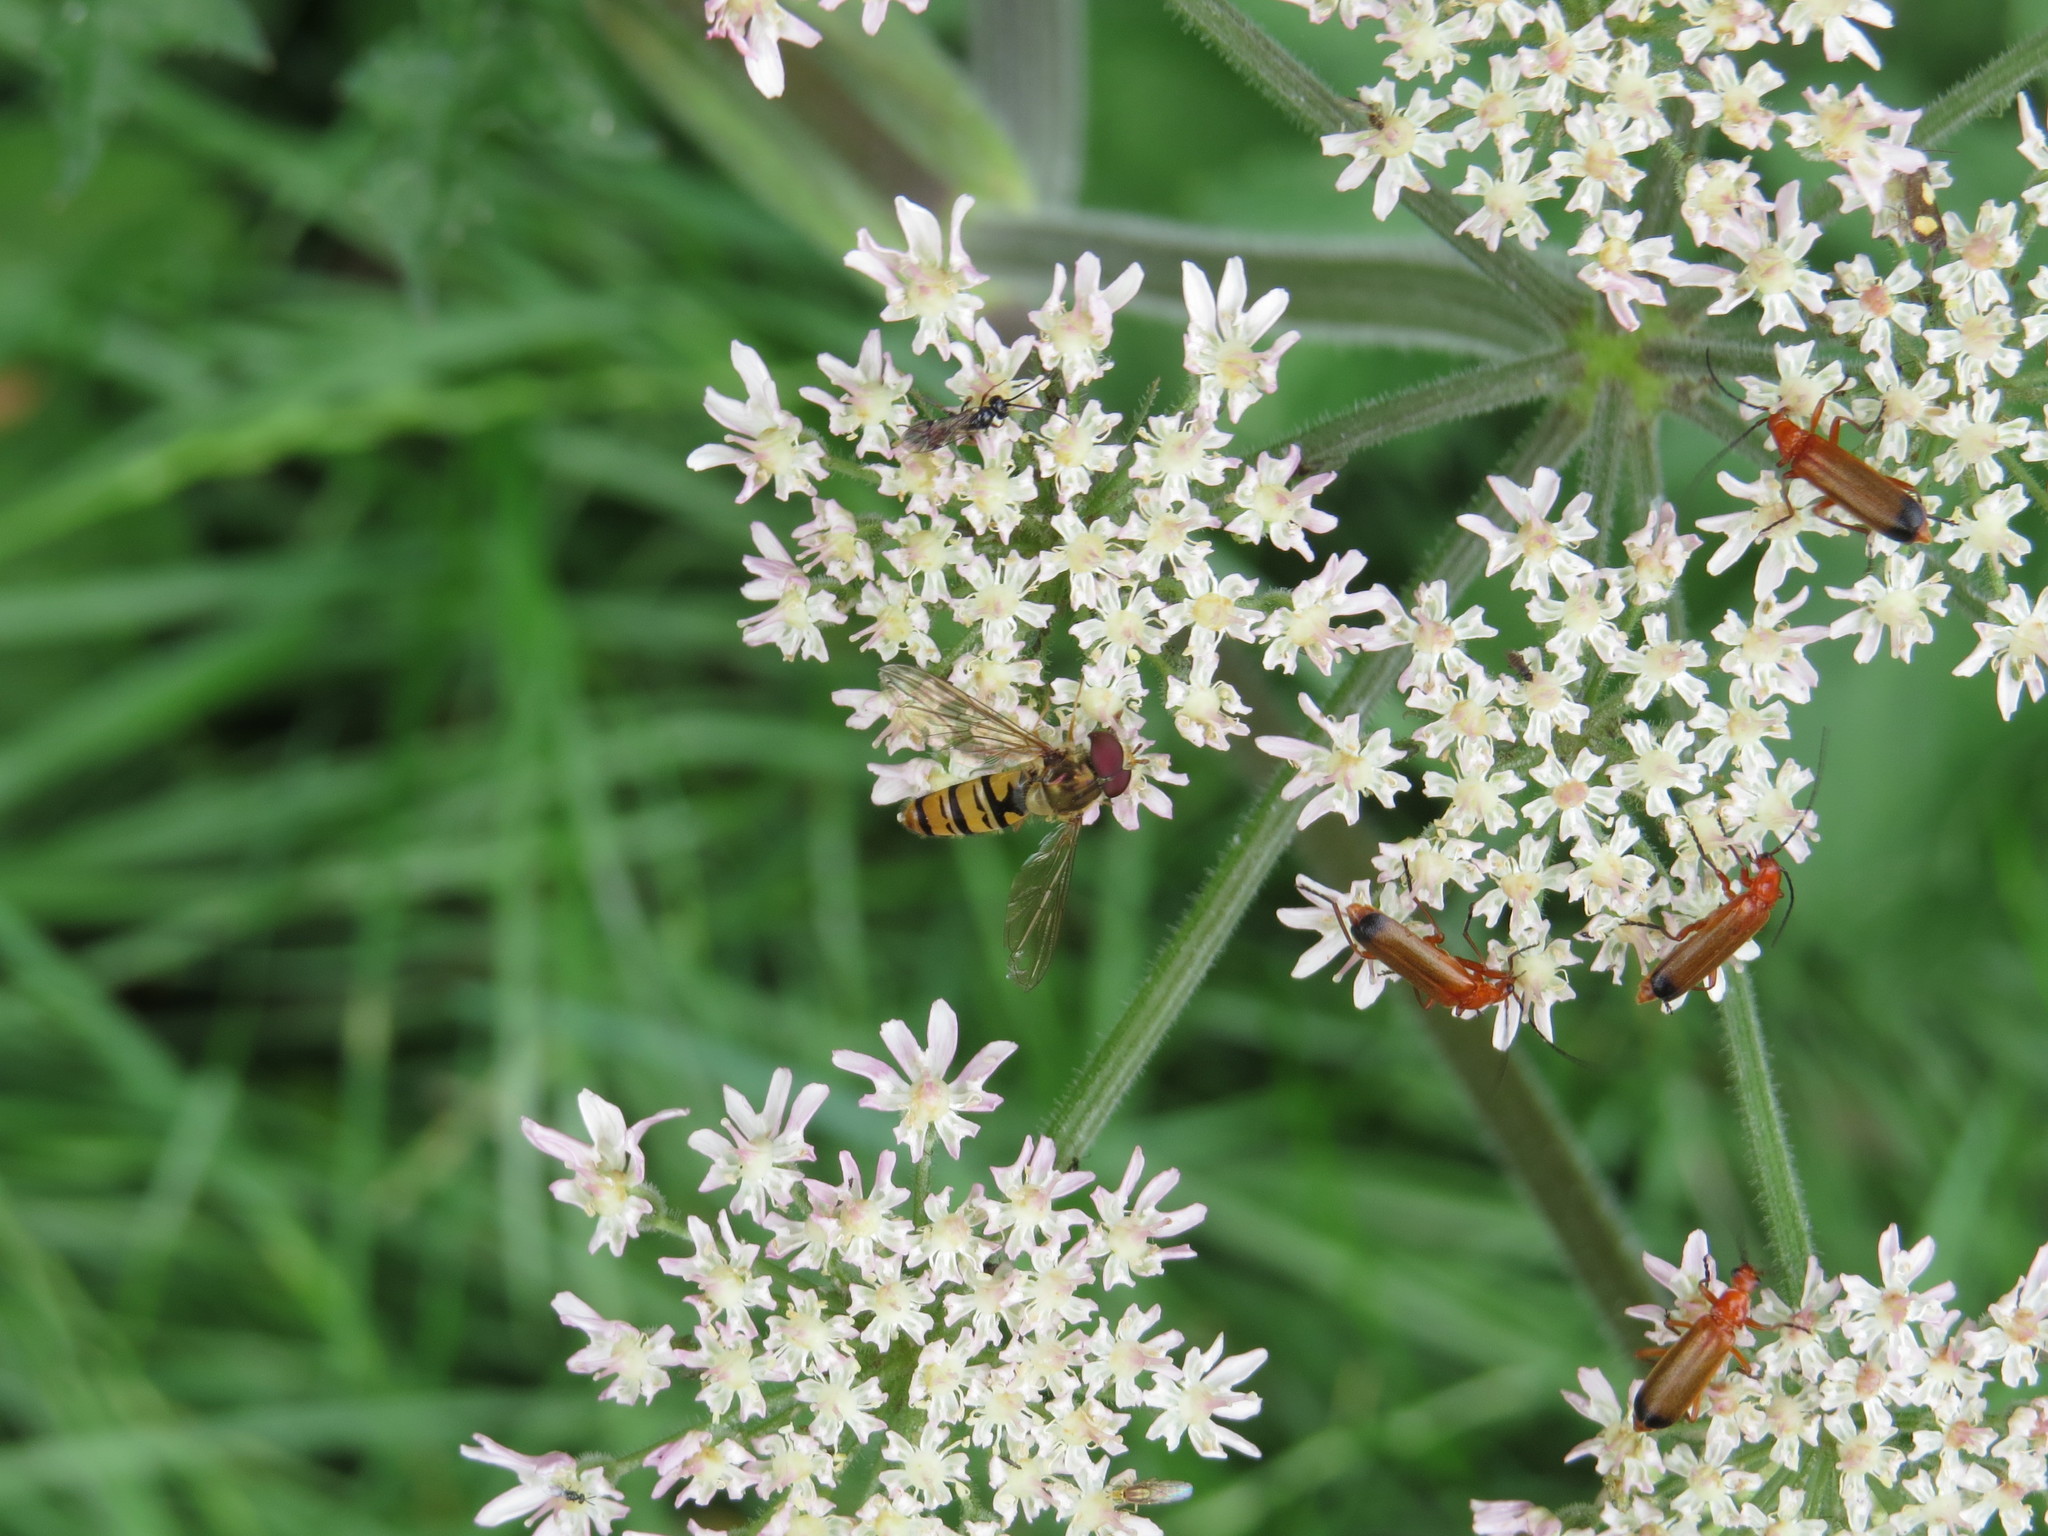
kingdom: Animalia
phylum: Arthropoda
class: Insecta
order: Diptera
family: Syrphidae
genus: Episyrphus
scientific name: Episyrphus balteatus
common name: Marmalade hoverfly
